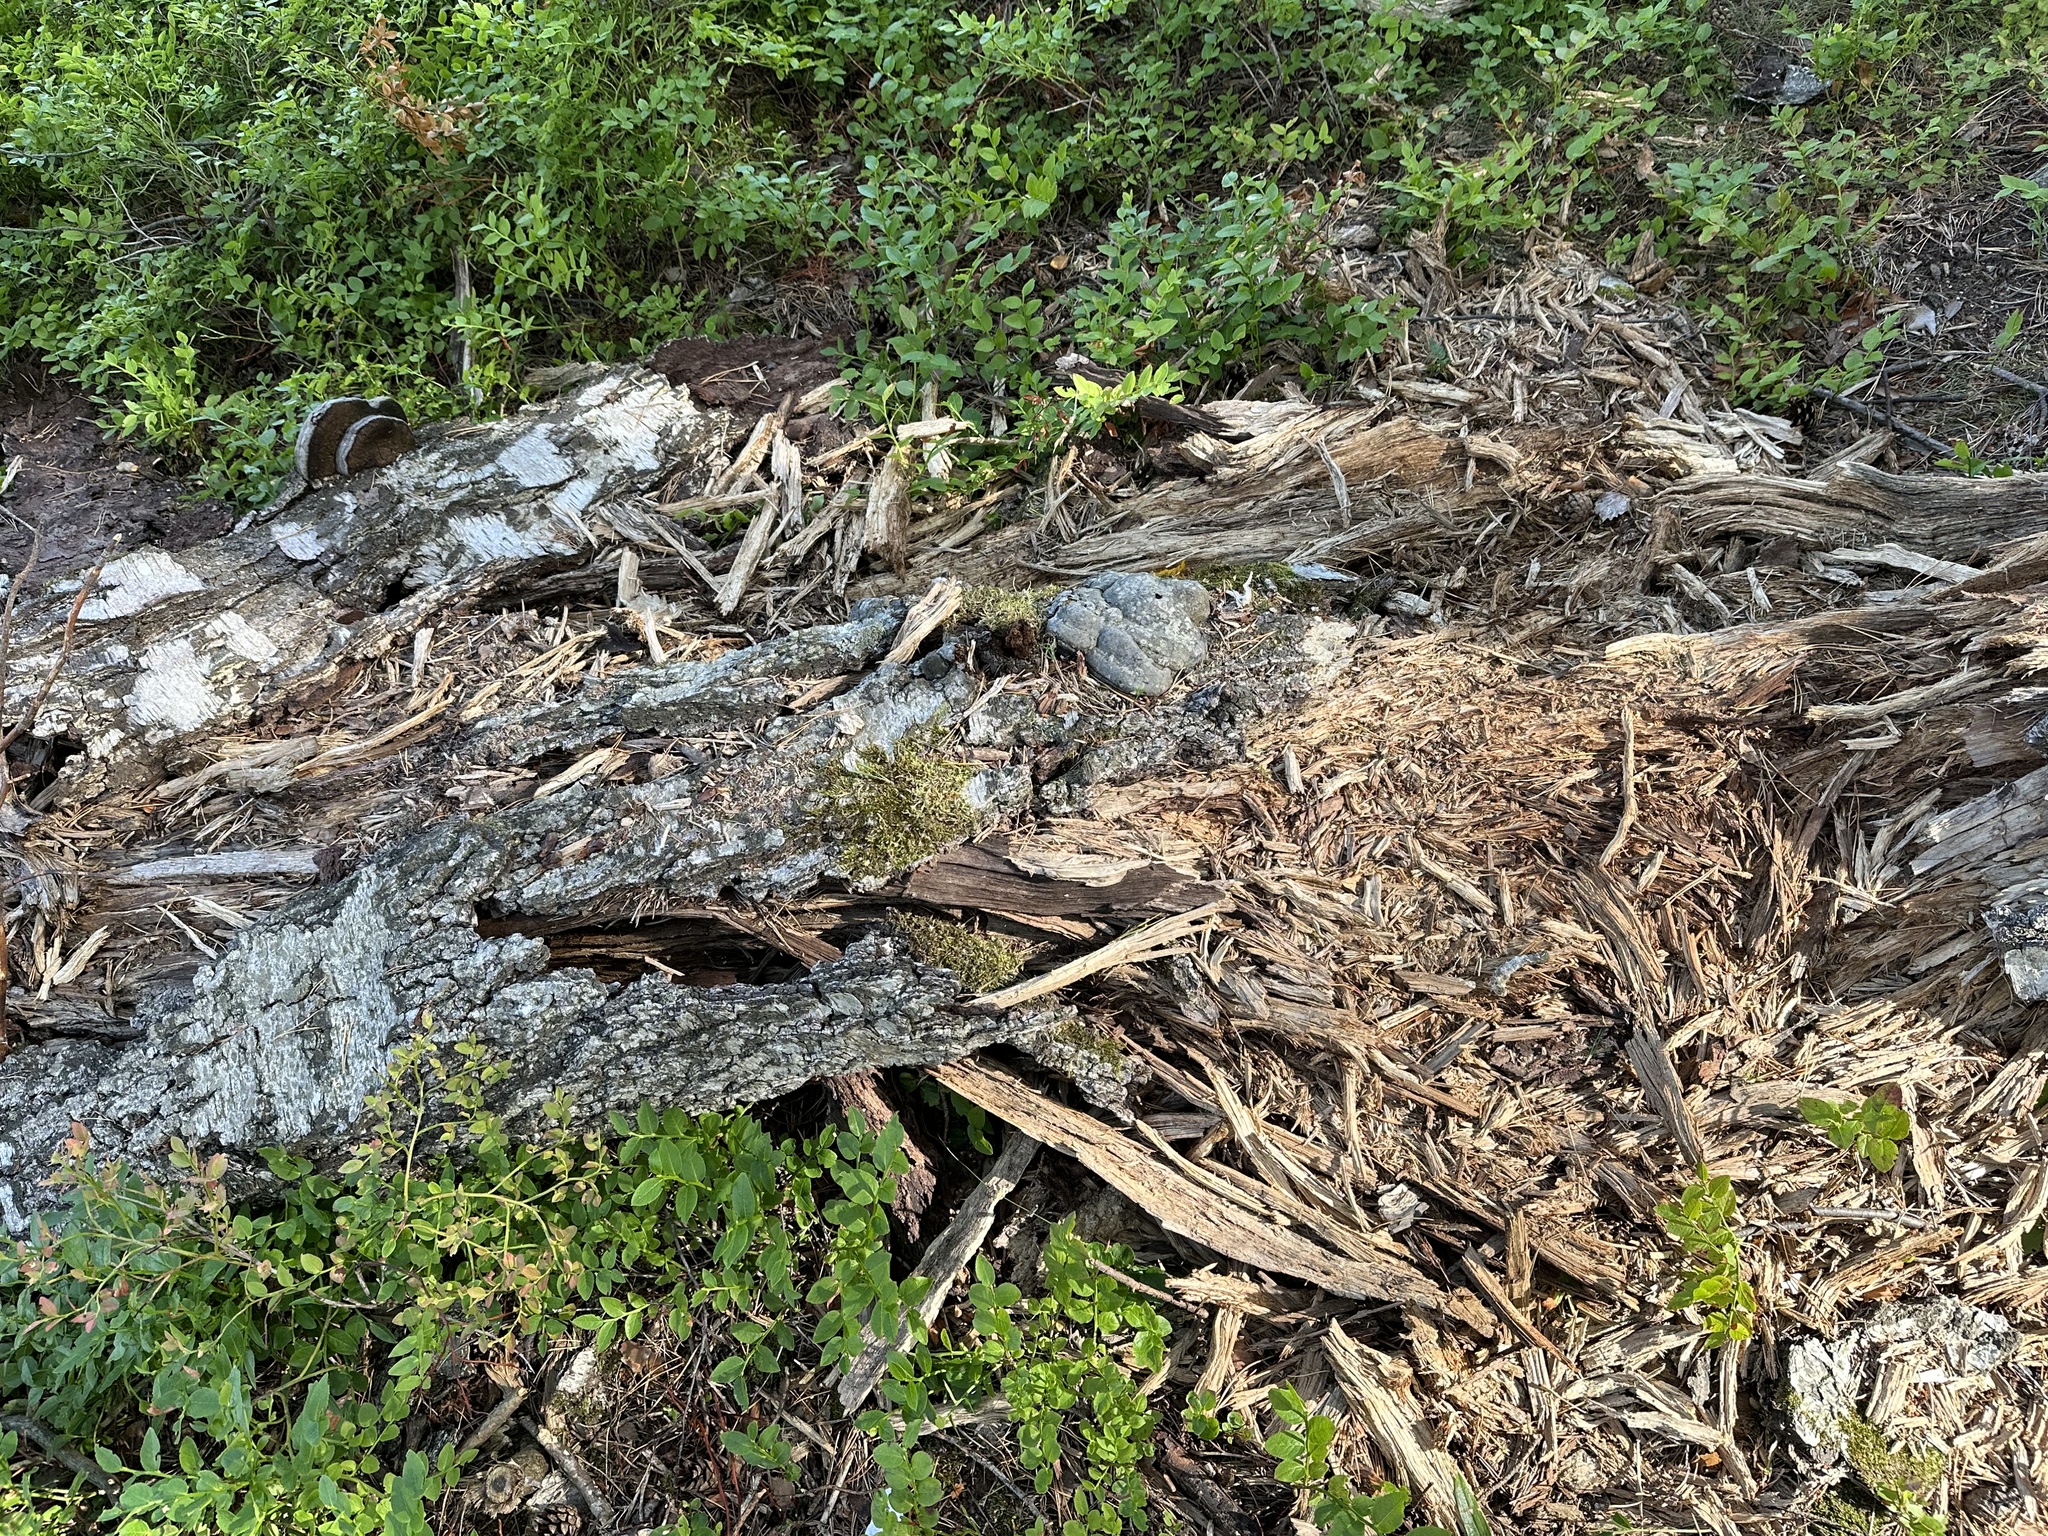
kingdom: Fungi
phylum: Basidiomycota
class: Agaricomycetes
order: Polyporales
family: Polyporaceae
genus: Fomes
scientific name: Fomes fomentarius
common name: Hoof fungus
